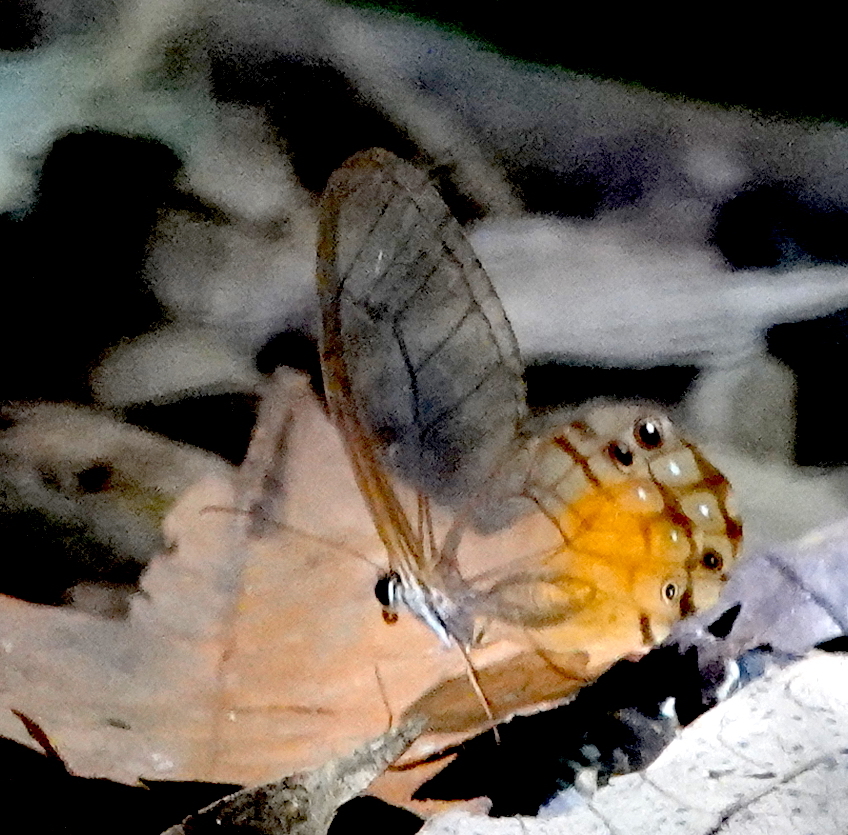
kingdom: Animalia
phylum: Arthropoda
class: Insecta
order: Lepidoptera
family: Nymphalidae
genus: Haetera
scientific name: Haetera piera
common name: Amber phantom
